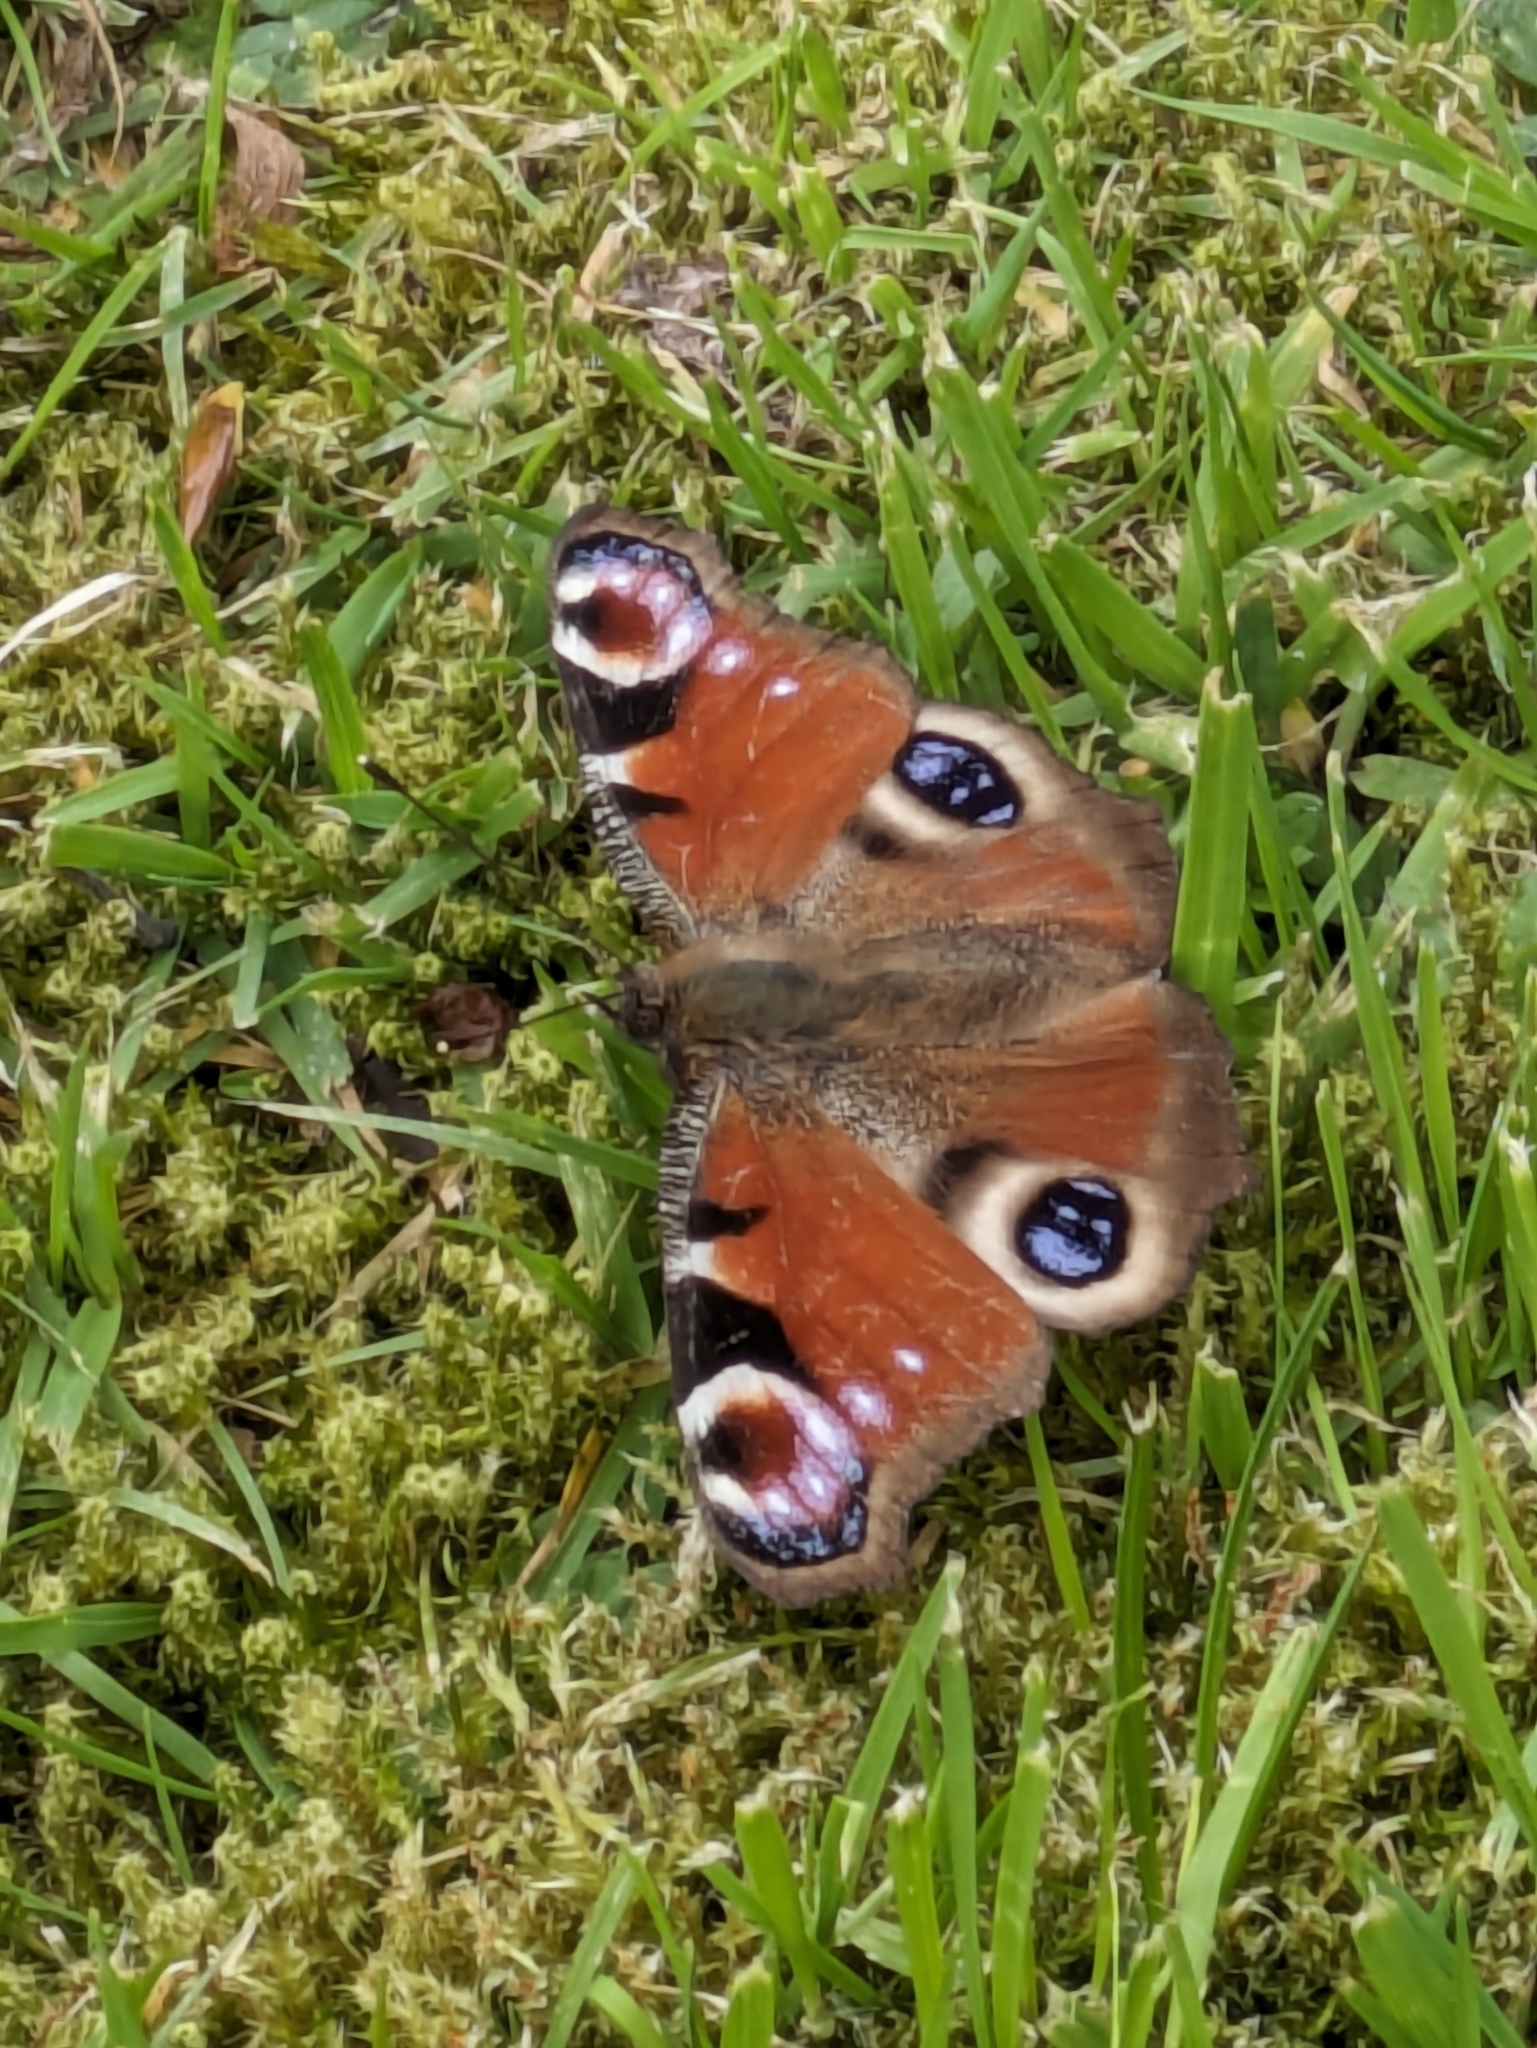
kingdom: Animalia
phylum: Arthropoda
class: Insecta
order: Lepidoptera
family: Nymphalidae
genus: Aglais
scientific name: Aglais io
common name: Peacock
